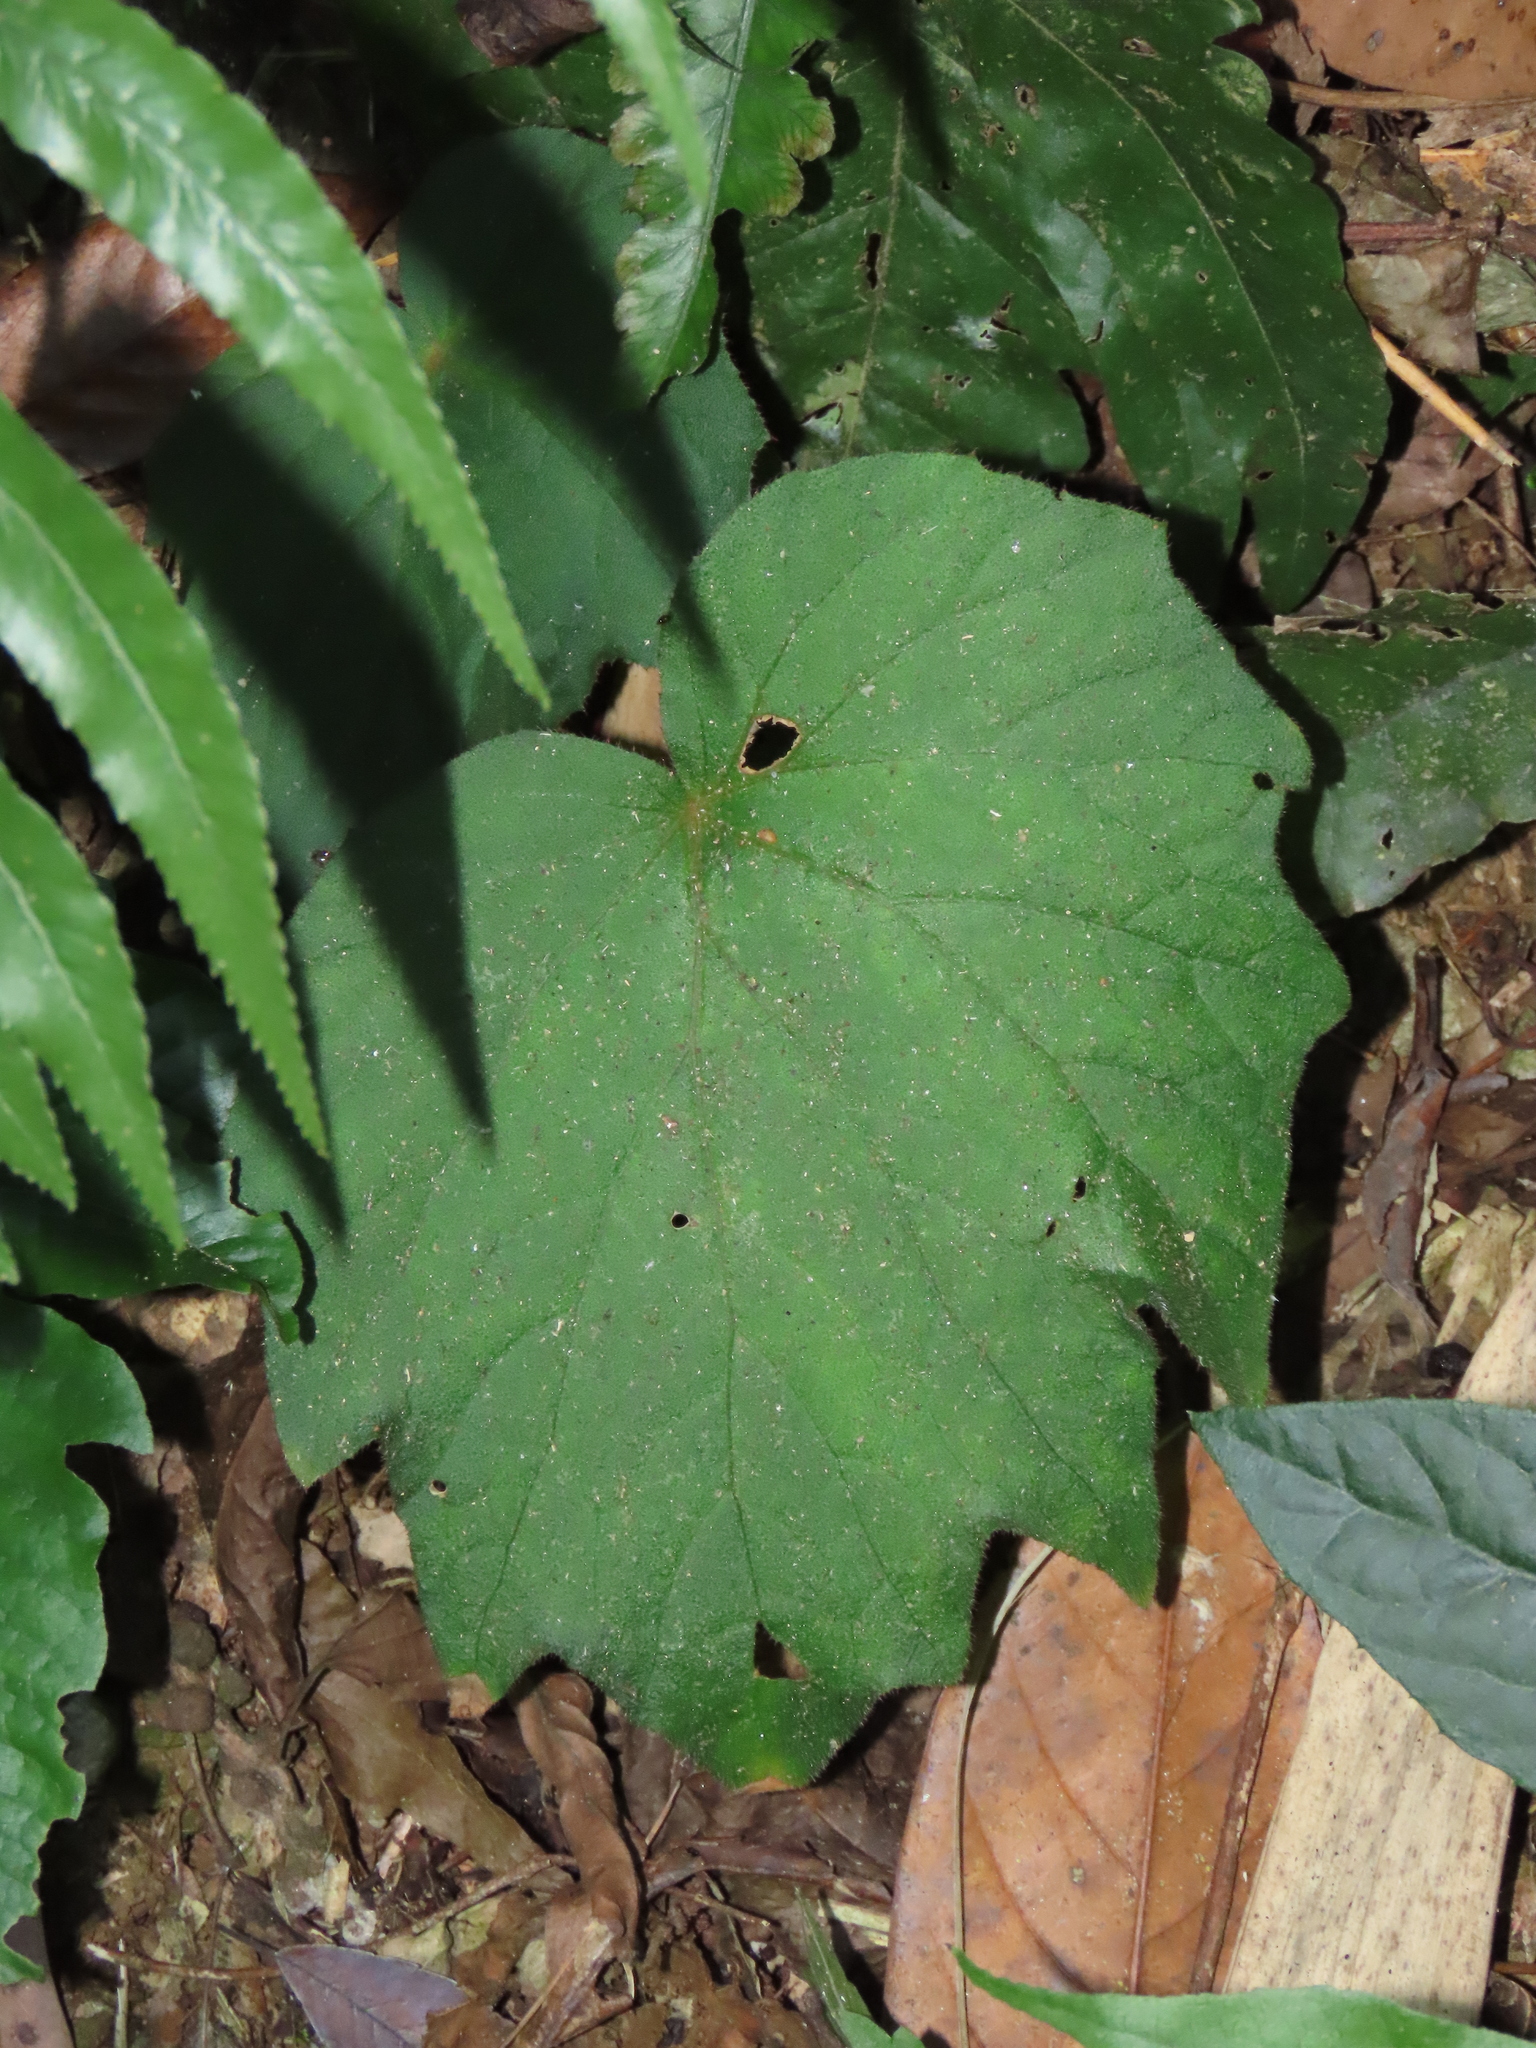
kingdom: Plantae
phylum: Tracheophyta
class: Magnoliopsida
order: Cucurbitales
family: Begoniaceae
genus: Begonia
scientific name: Begonia palmata
